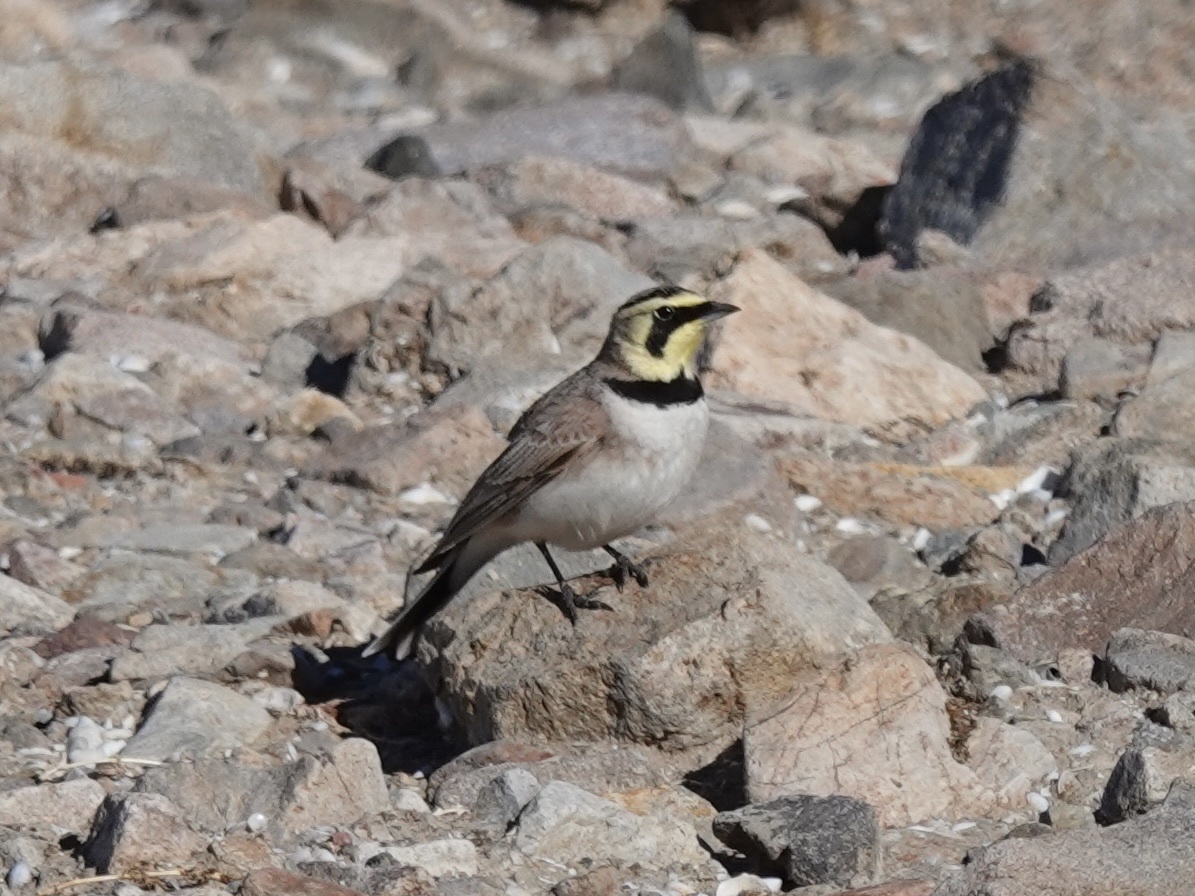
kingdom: Animalia
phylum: Chordata
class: Aves
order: Passeriformes
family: Alaudidae
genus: Eremophila
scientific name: Eremophila alpestris
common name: Horned lark
